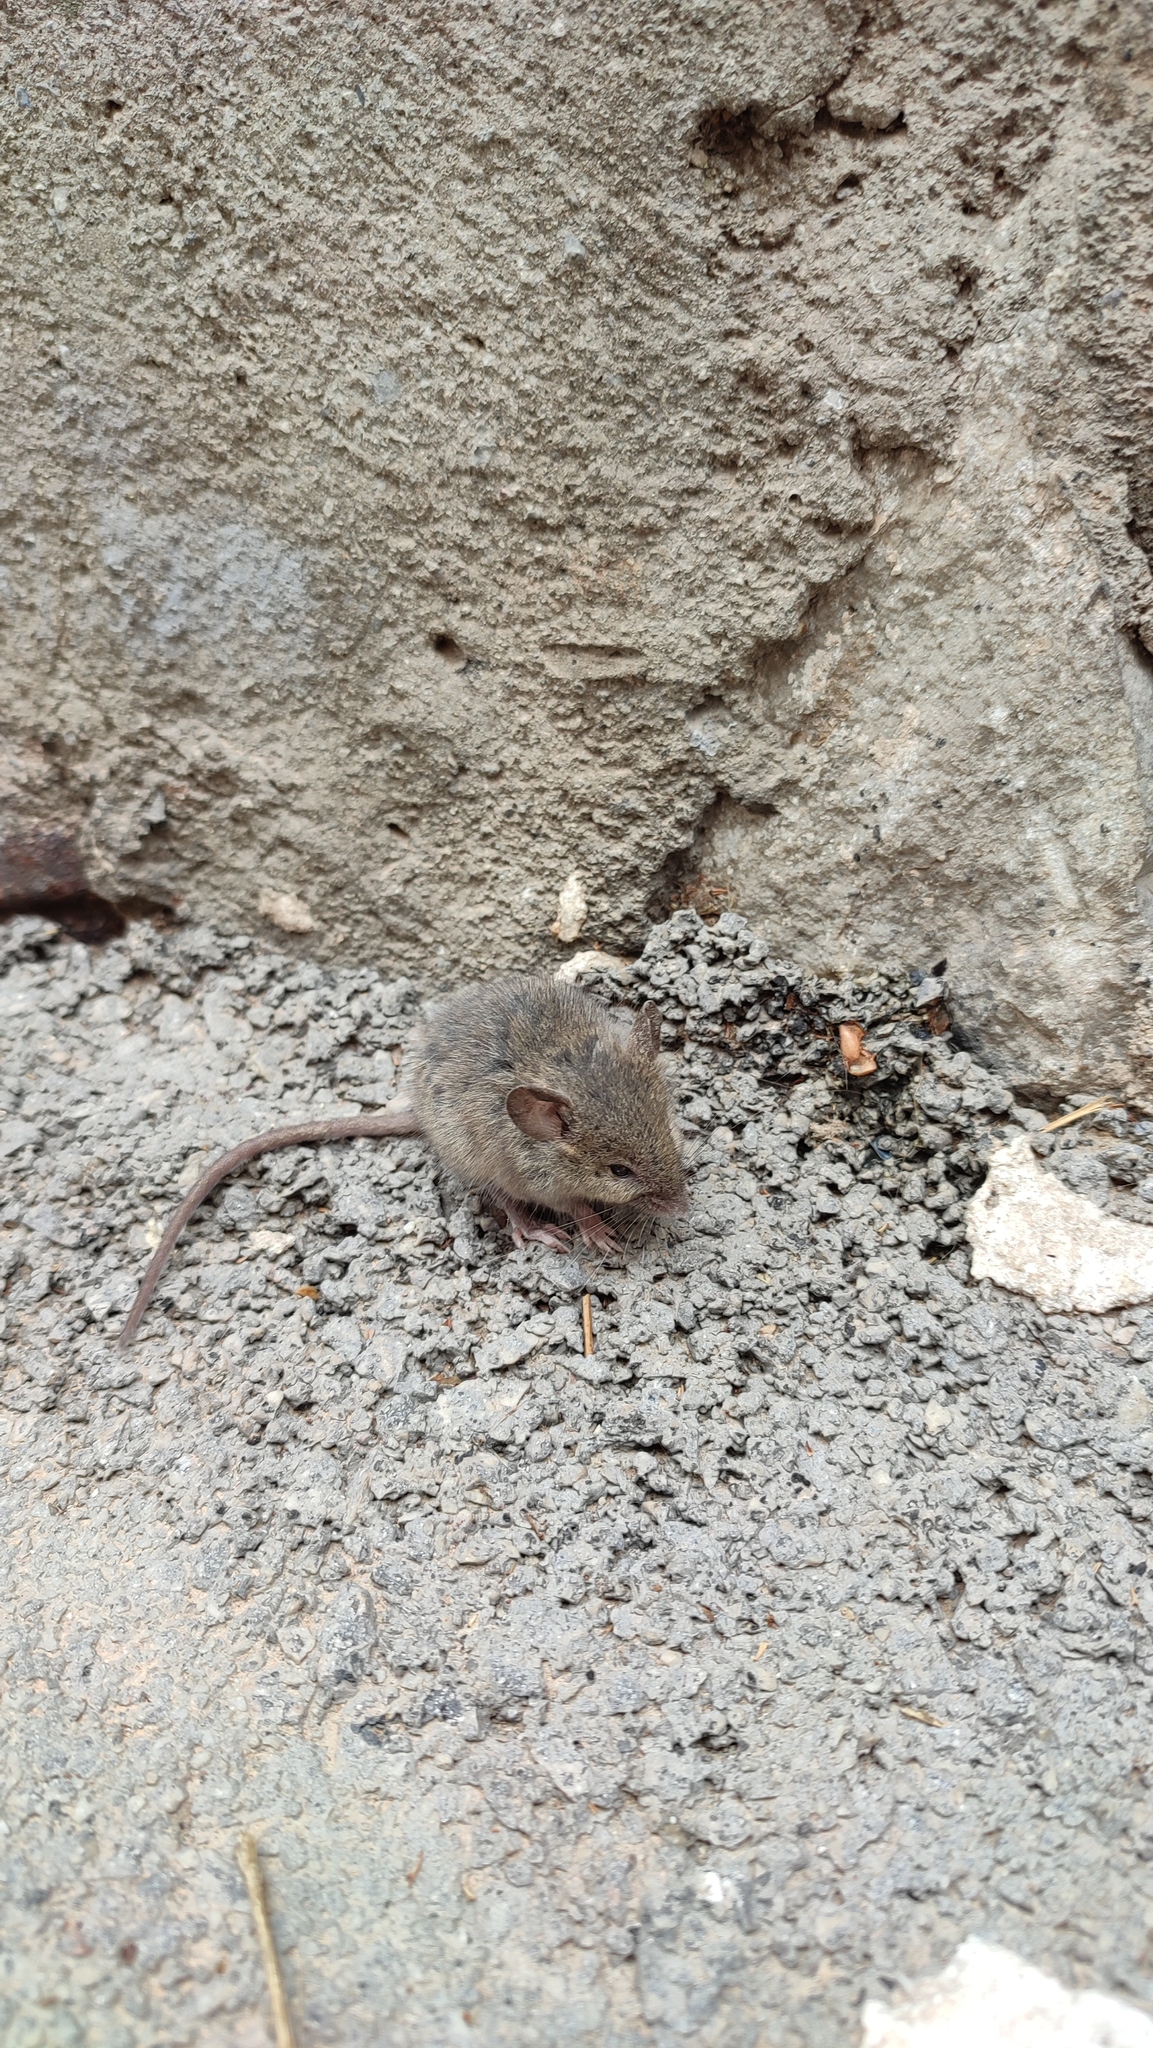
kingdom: Animalia
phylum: Chordata
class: Mammalia
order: Rodentia
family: Muridae
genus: Mus
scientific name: Mus musculus
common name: House mouse
